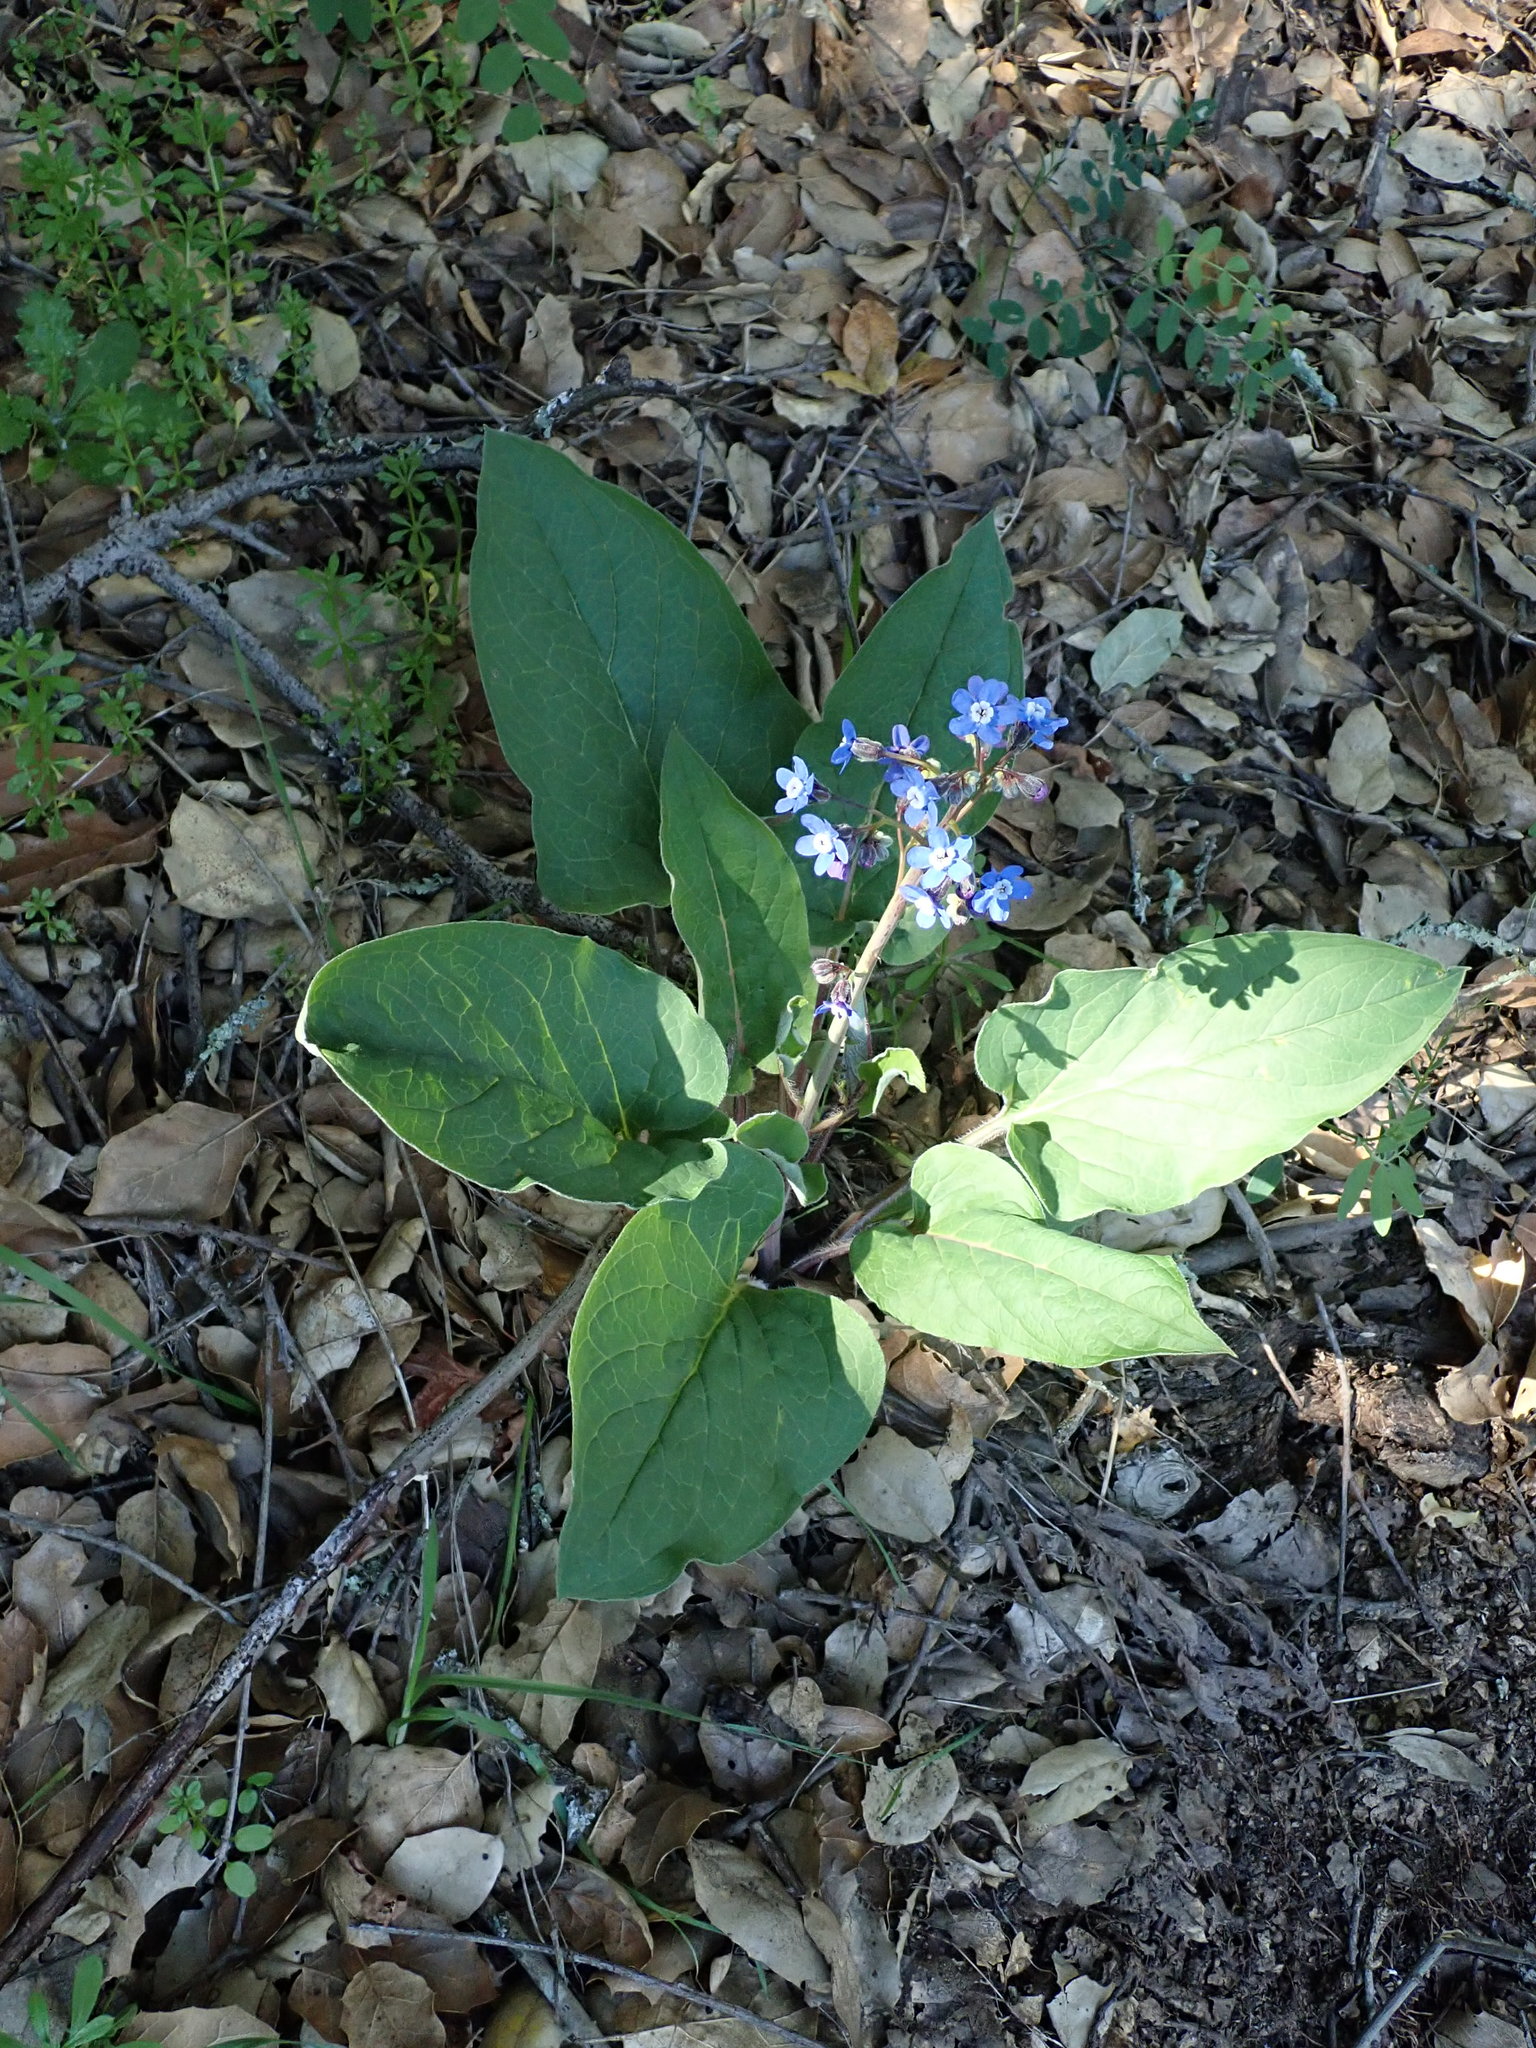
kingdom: Plantae
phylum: Tracheophyta
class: Magnoliopsida
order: Boraginales
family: Boraginaceae
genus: Adelinia
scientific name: Adelinia grande
